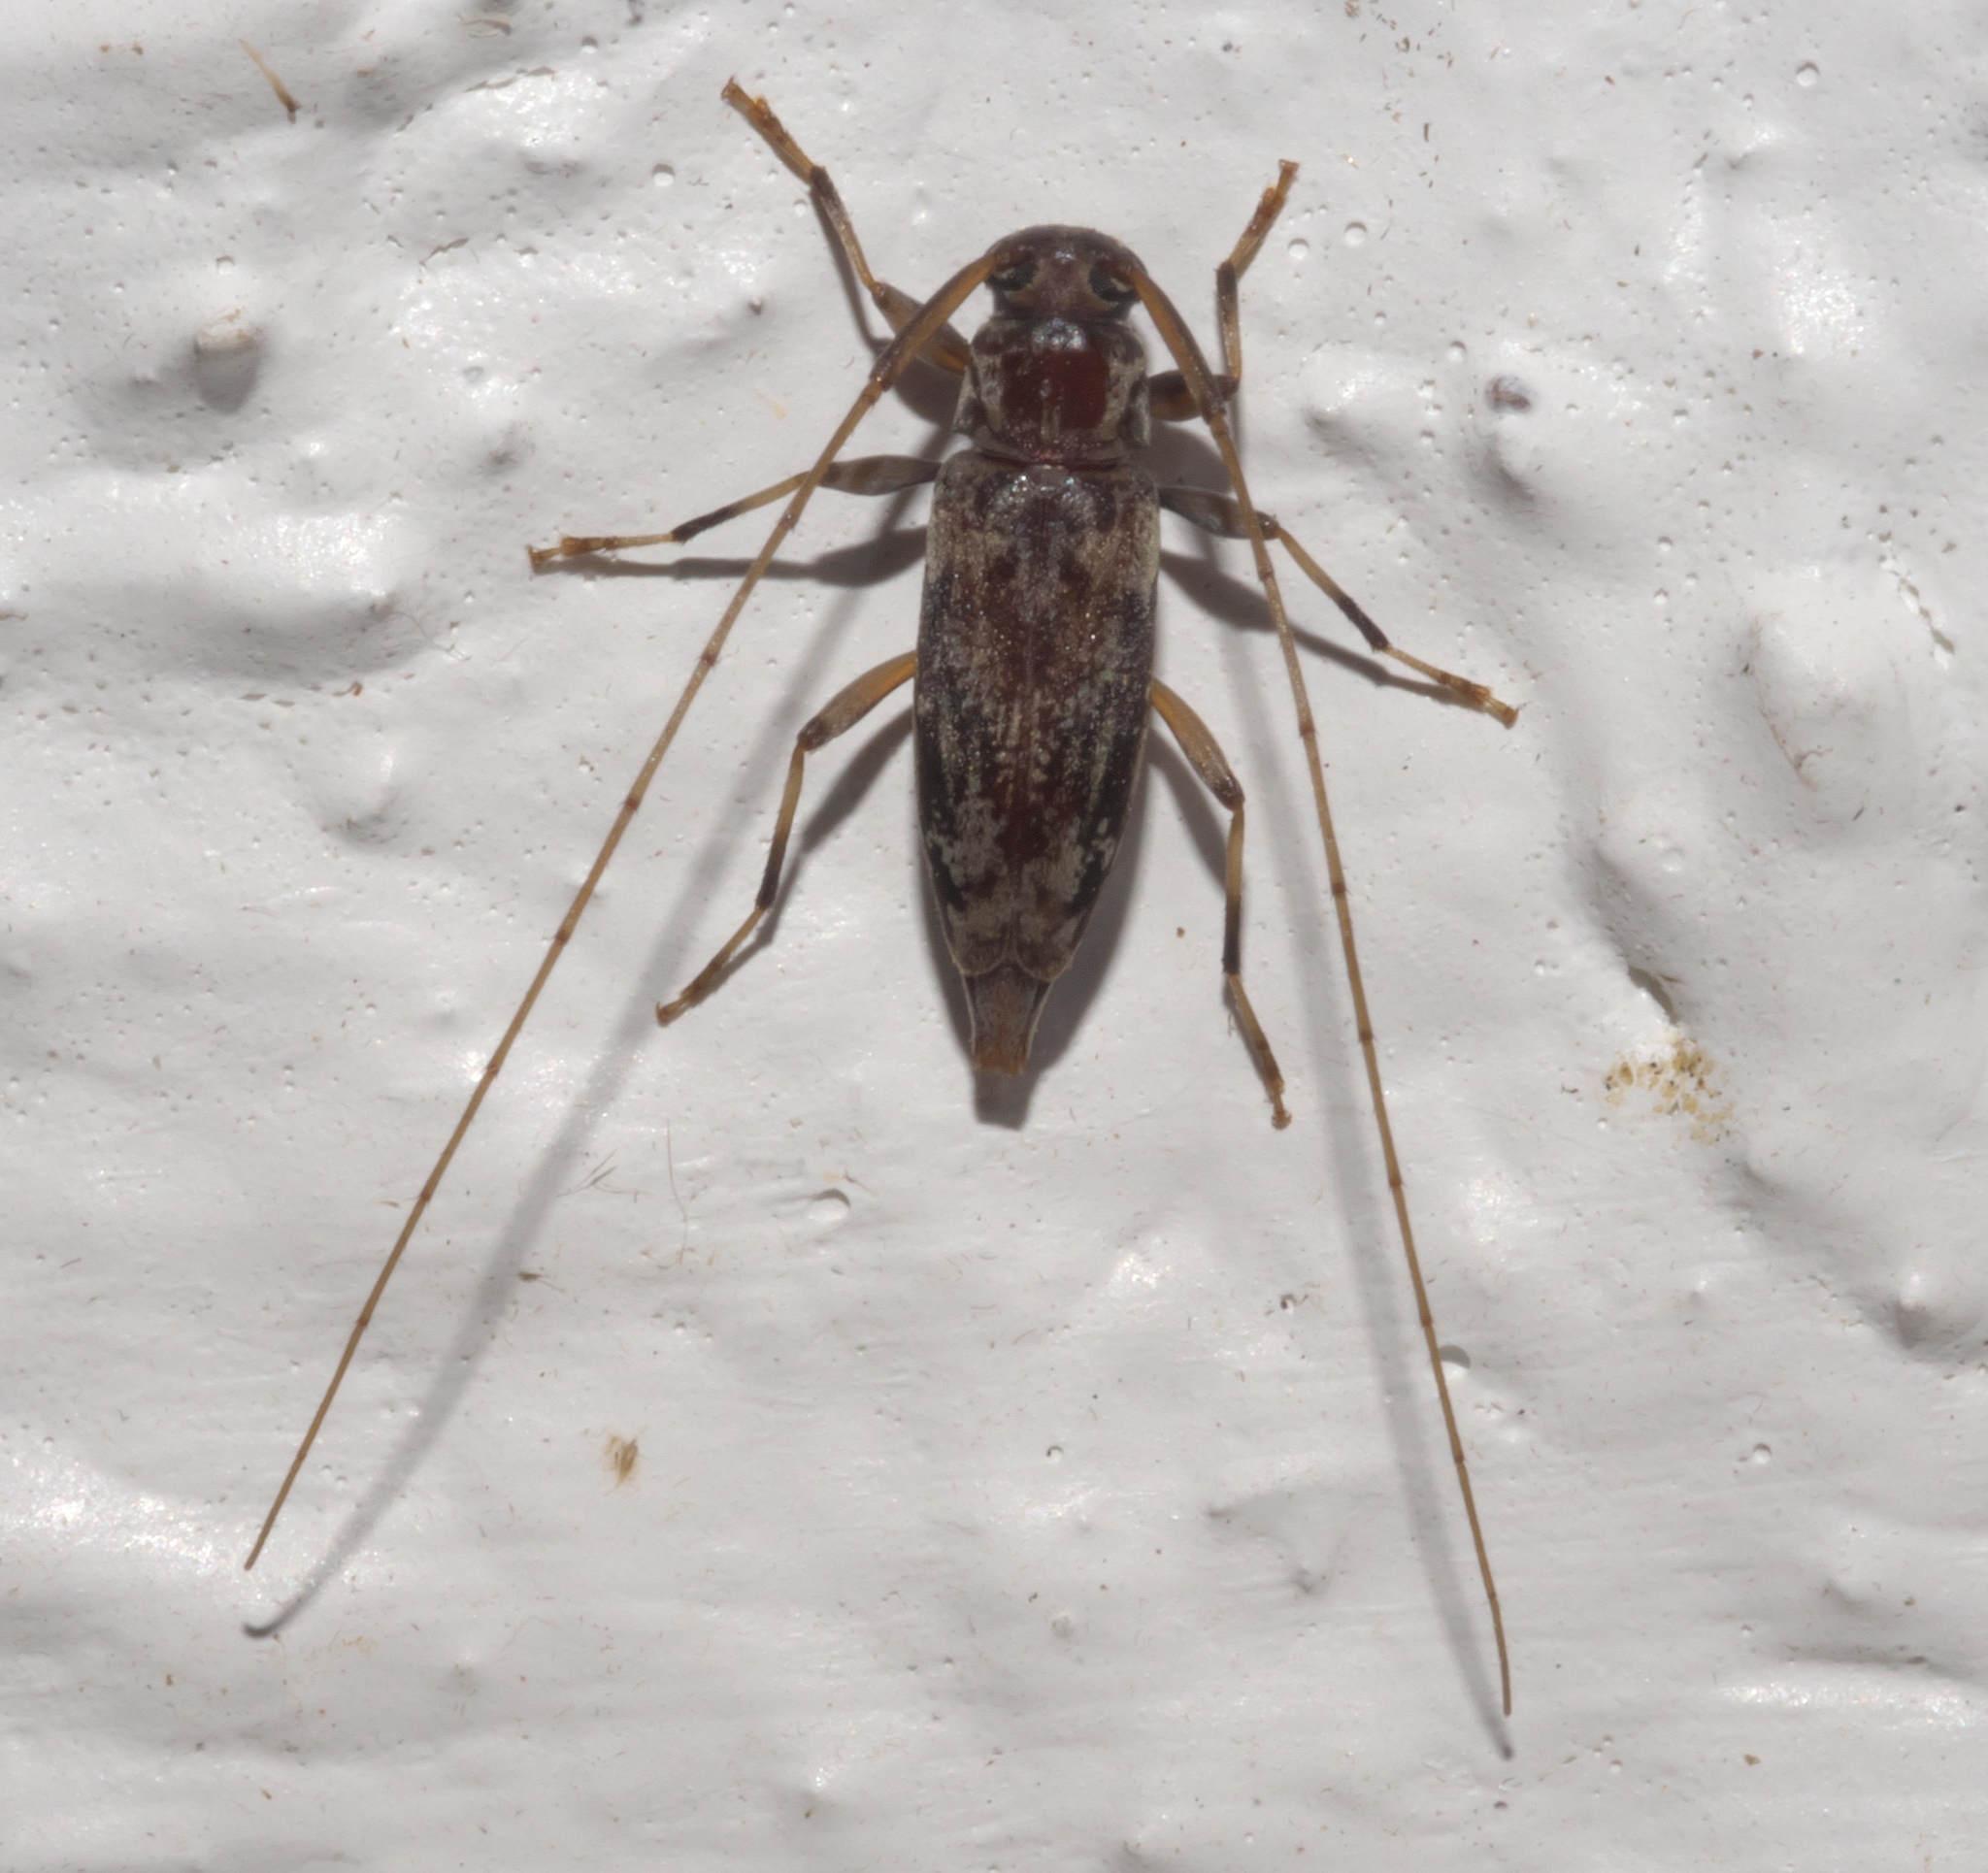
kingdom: Animalia
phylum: Arthropoda
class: Insecta
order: Coleoptera
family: Cerambycidae
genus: Lepturges
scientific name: Lepturges angulatus
